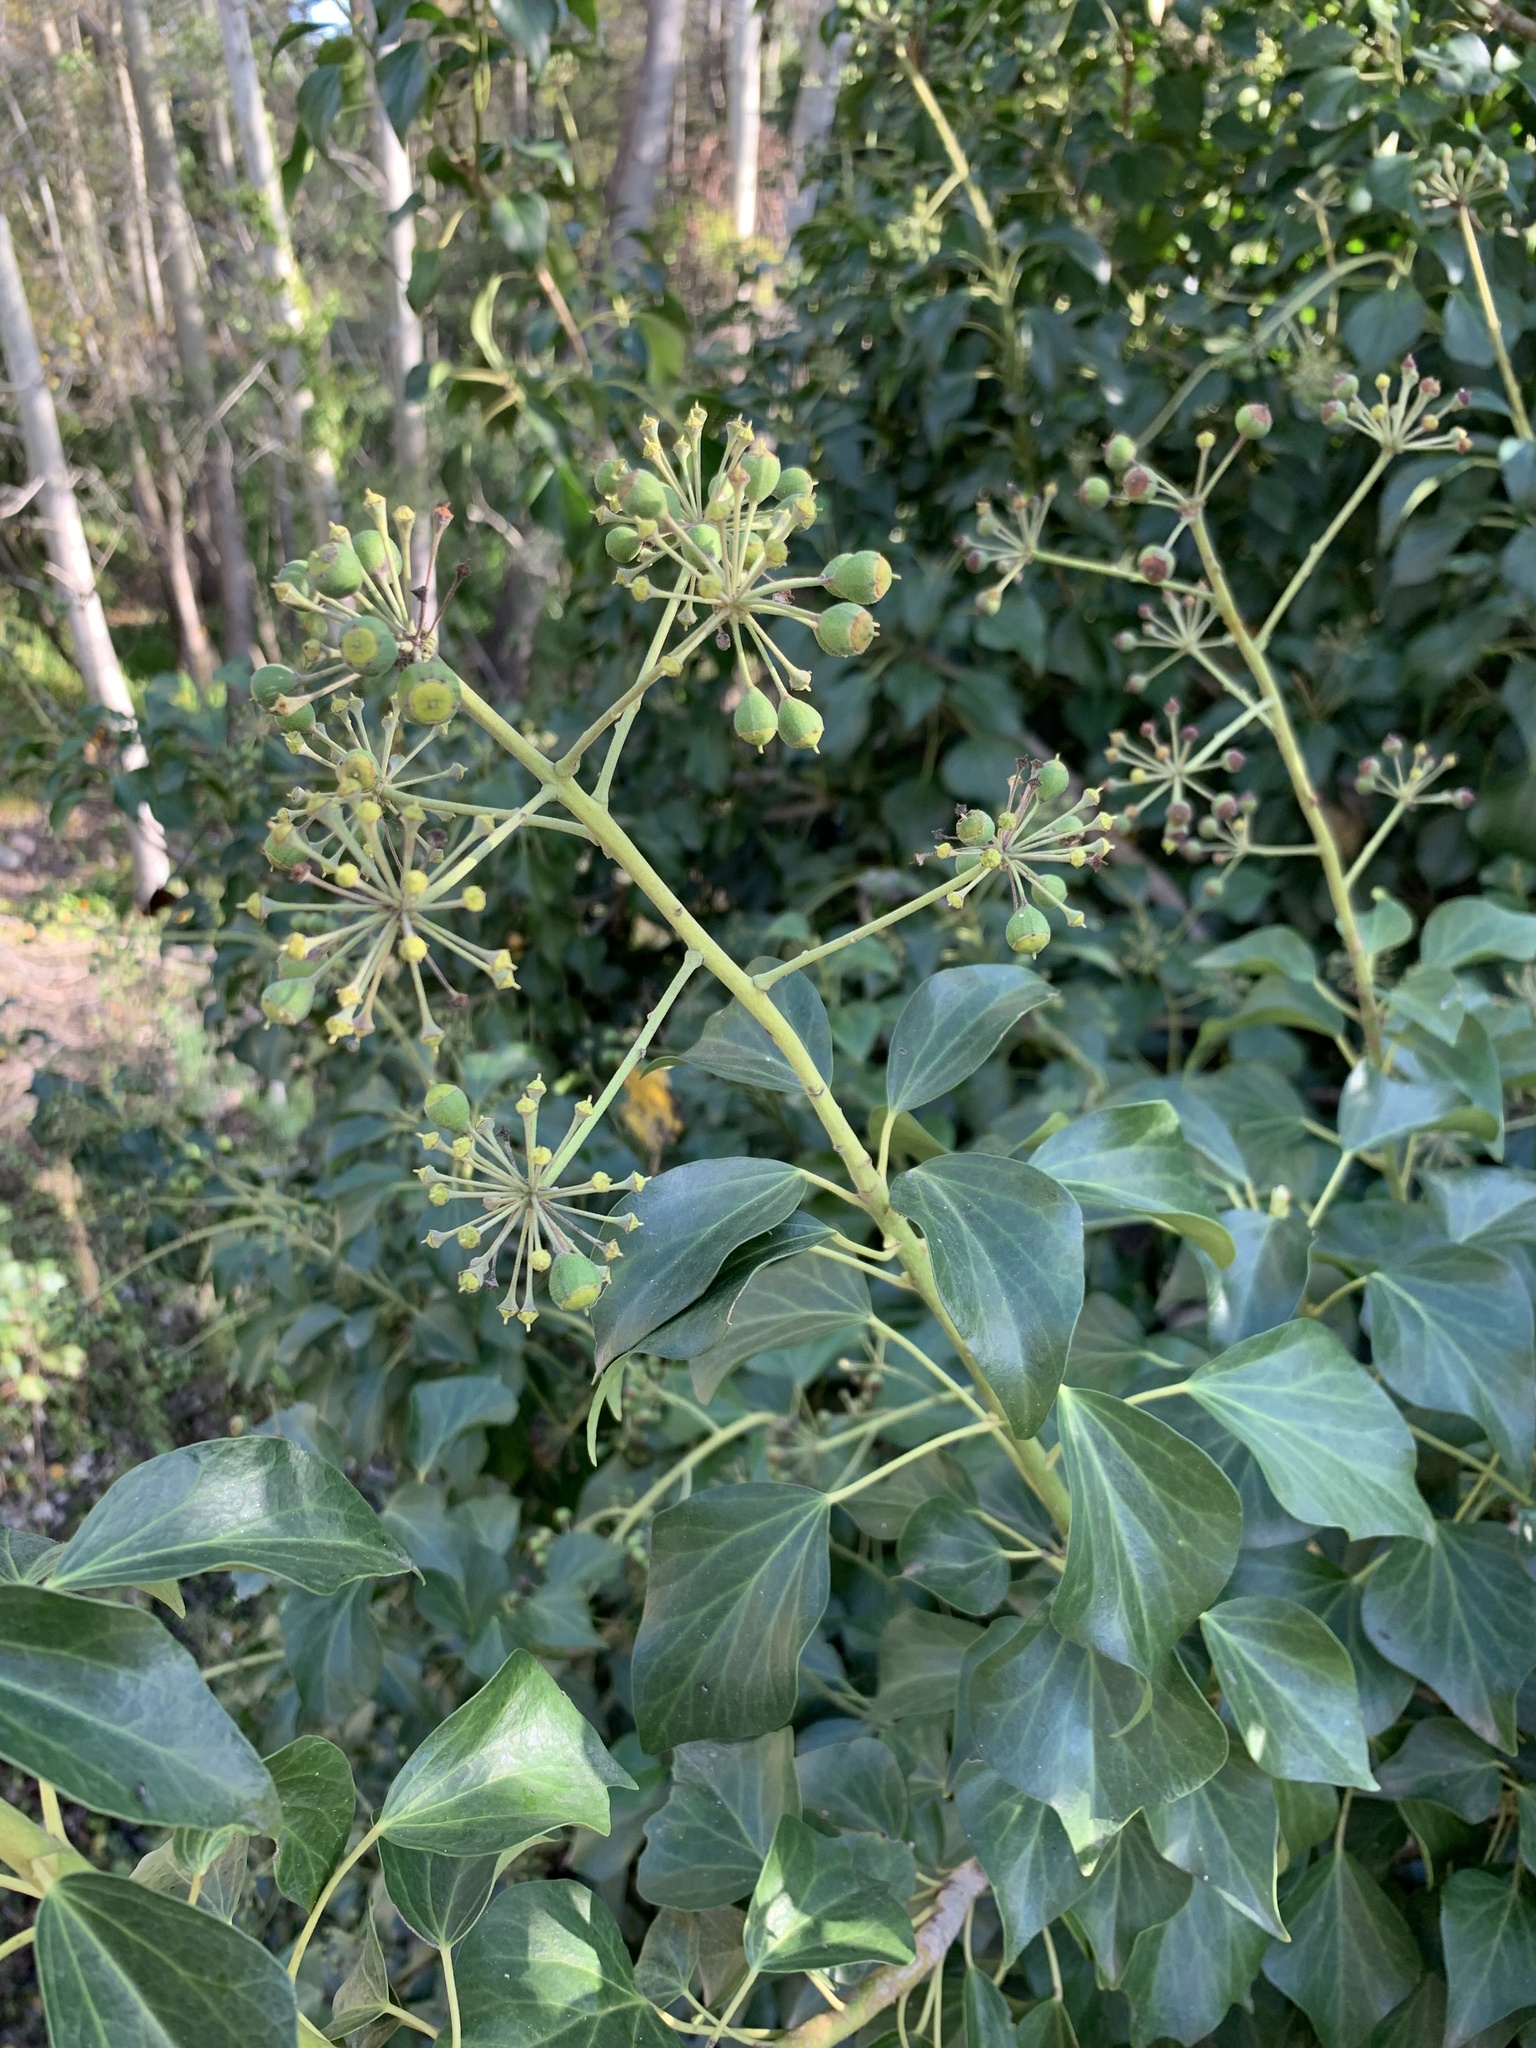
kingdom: Plantae
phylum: Tracheophyta
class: Magnoliopsida
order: Apiales
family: Araliaceae
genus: Hedera
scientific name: Hedera canariensis
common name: Madeira ivy
